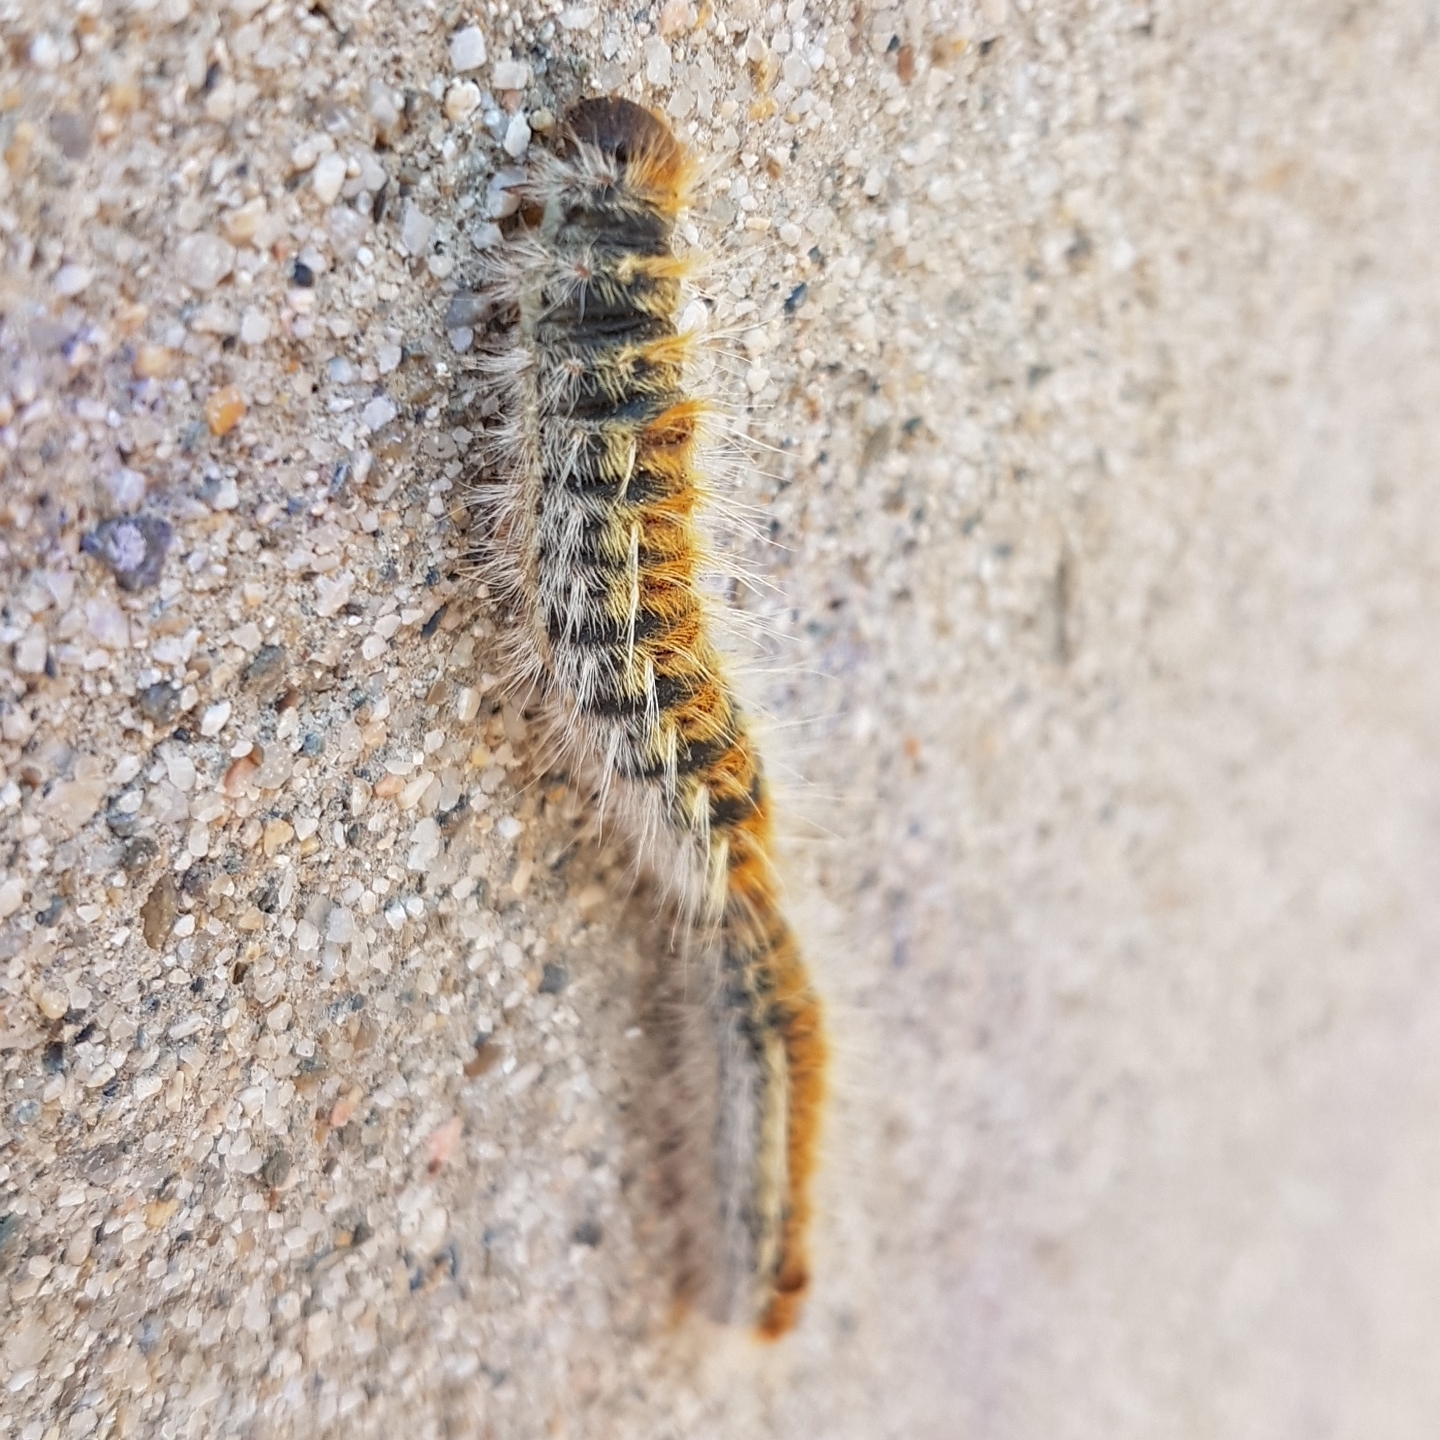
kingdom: Animalia
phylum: Arthropoda
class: Insecta
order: Lepidoptera
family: Notodontidae
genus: Thaumetopoea
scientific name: Thaumetopoea pityocampa
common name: Pine processionary
